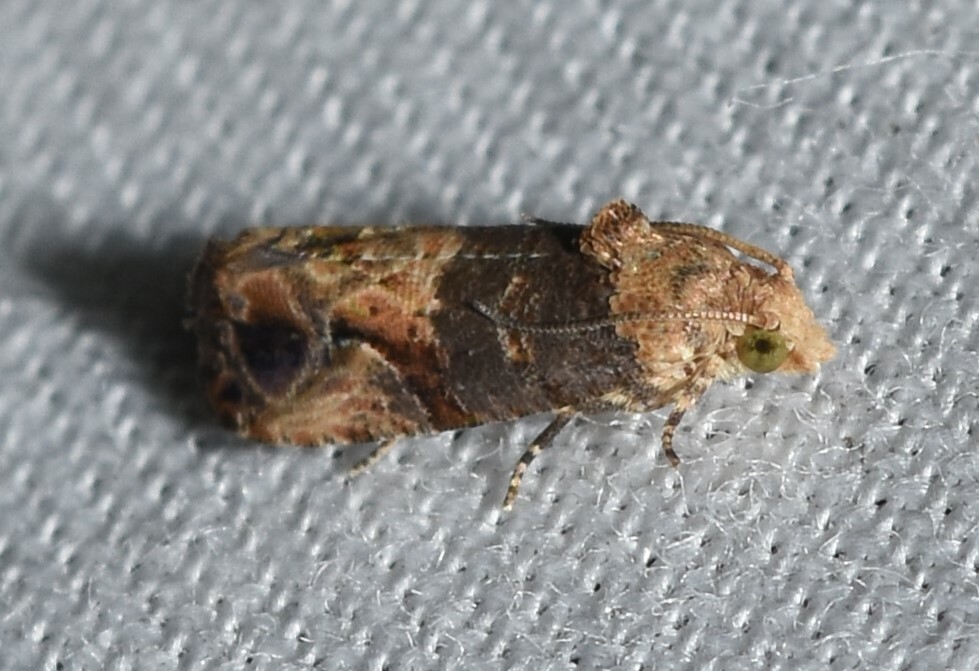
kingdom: Animalia
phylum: Arthropoda
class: Insecta
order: Lepidoptera
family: Tortricidae
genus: Paralobesia
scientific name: Paralobesia viteana
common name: Grape berry moth
